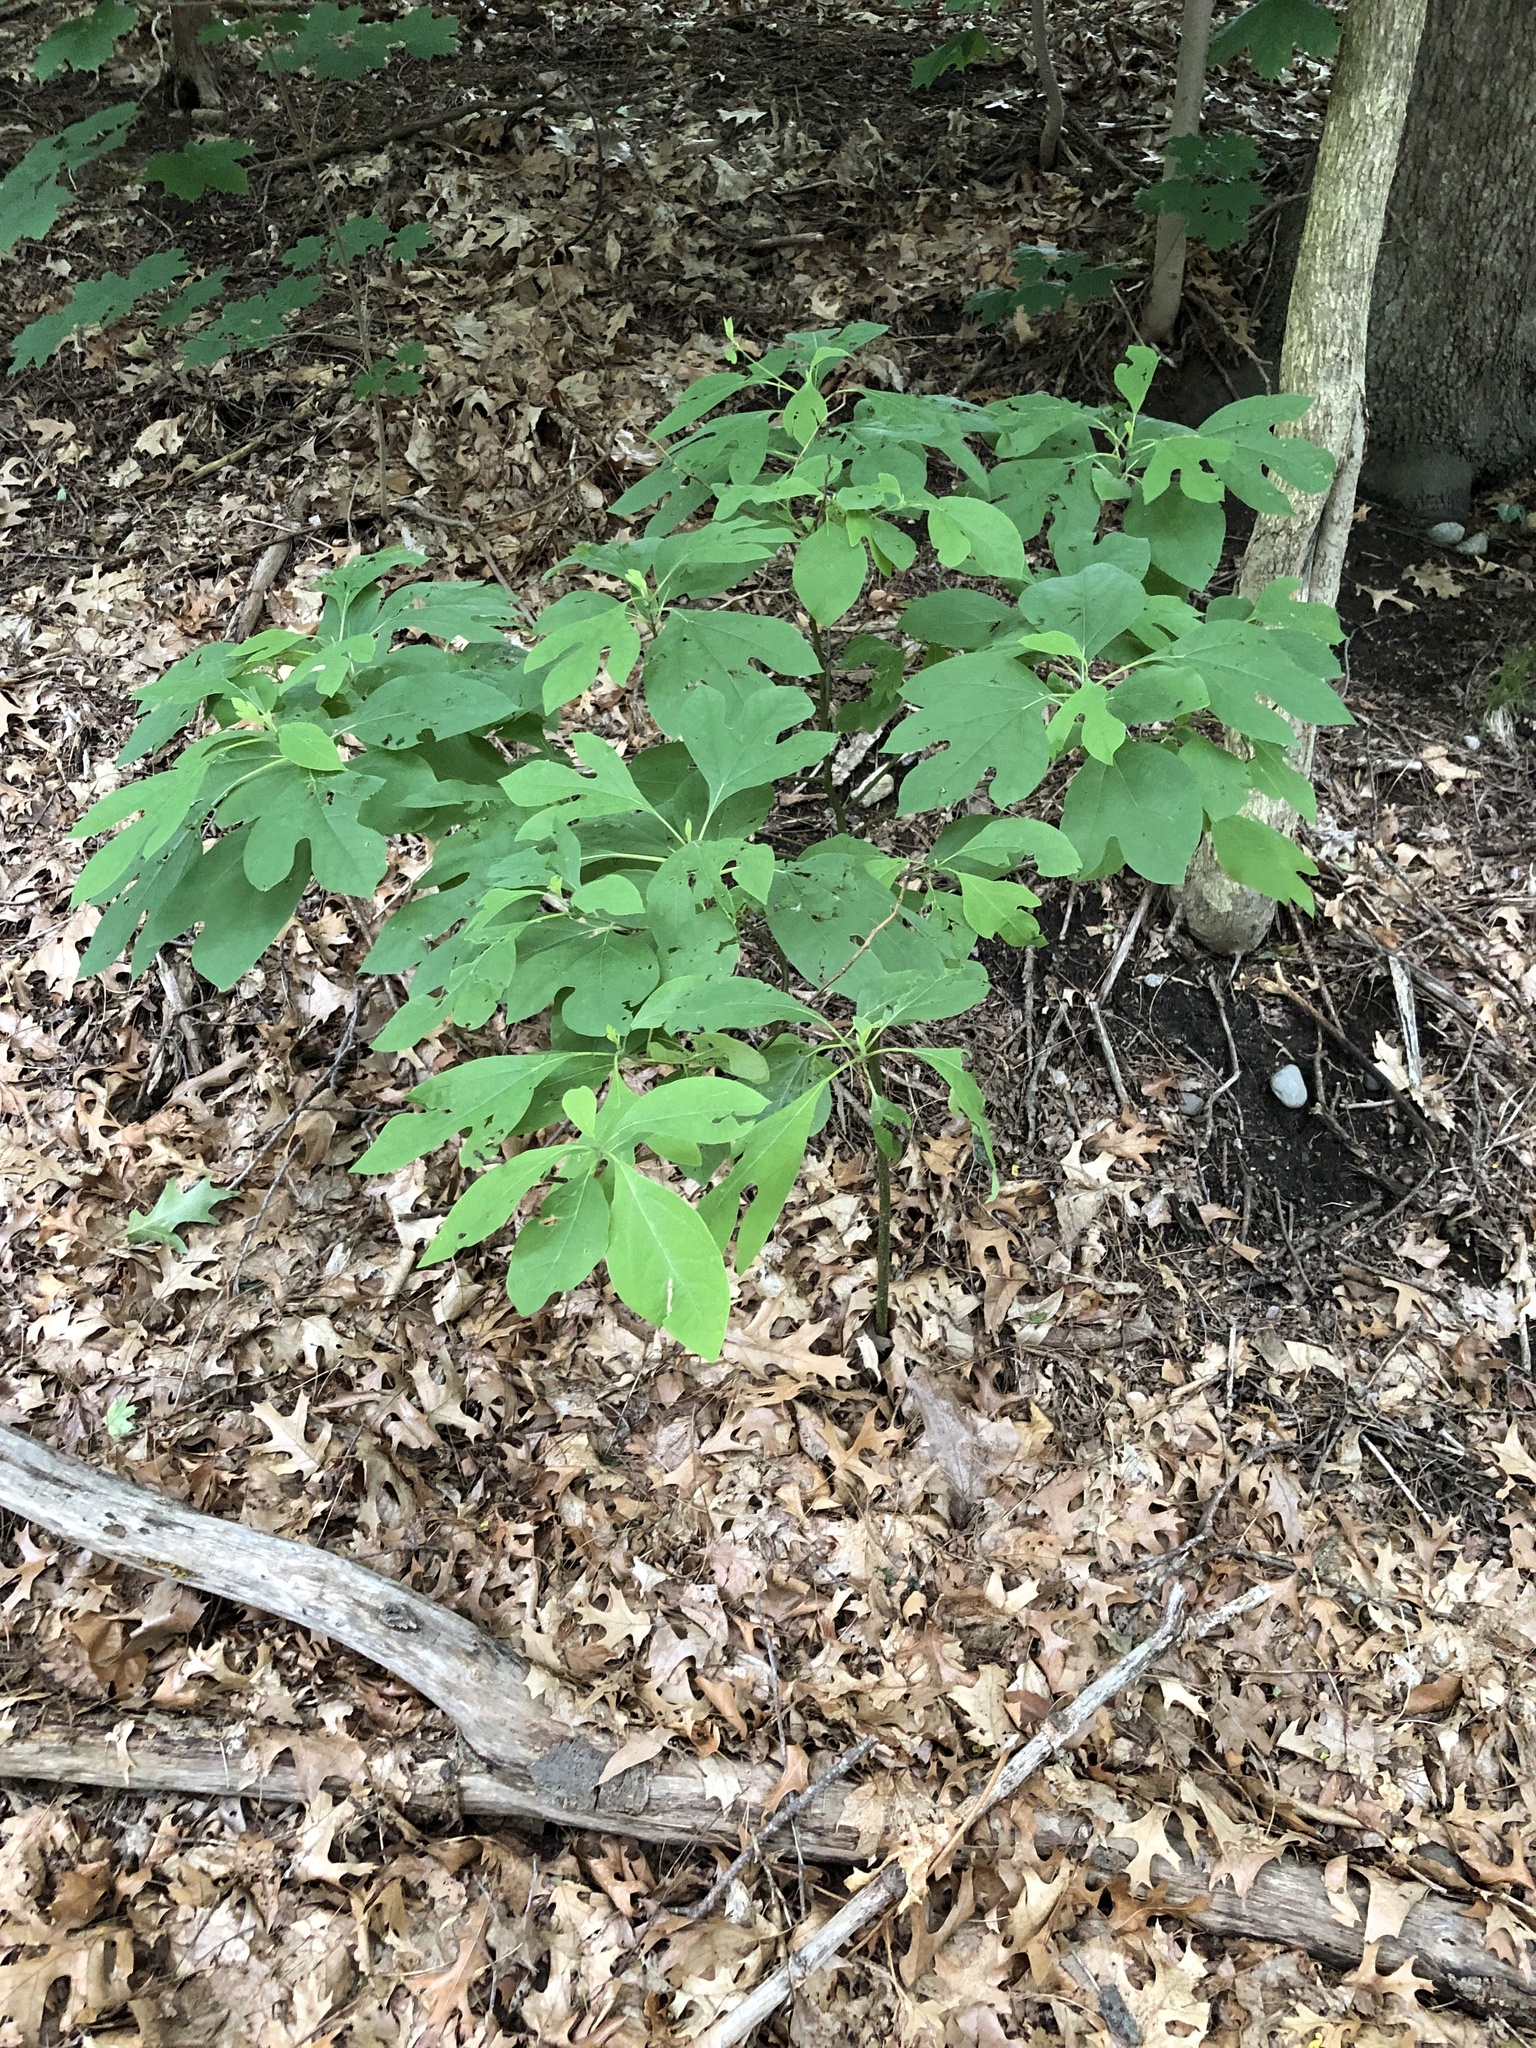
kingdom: Plantae
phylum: Tracheophyta
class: Magnoliopsida
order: Laurales
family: Lauraceae
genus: Sassafras
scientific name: Sassafras albidum
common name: Sassafras
